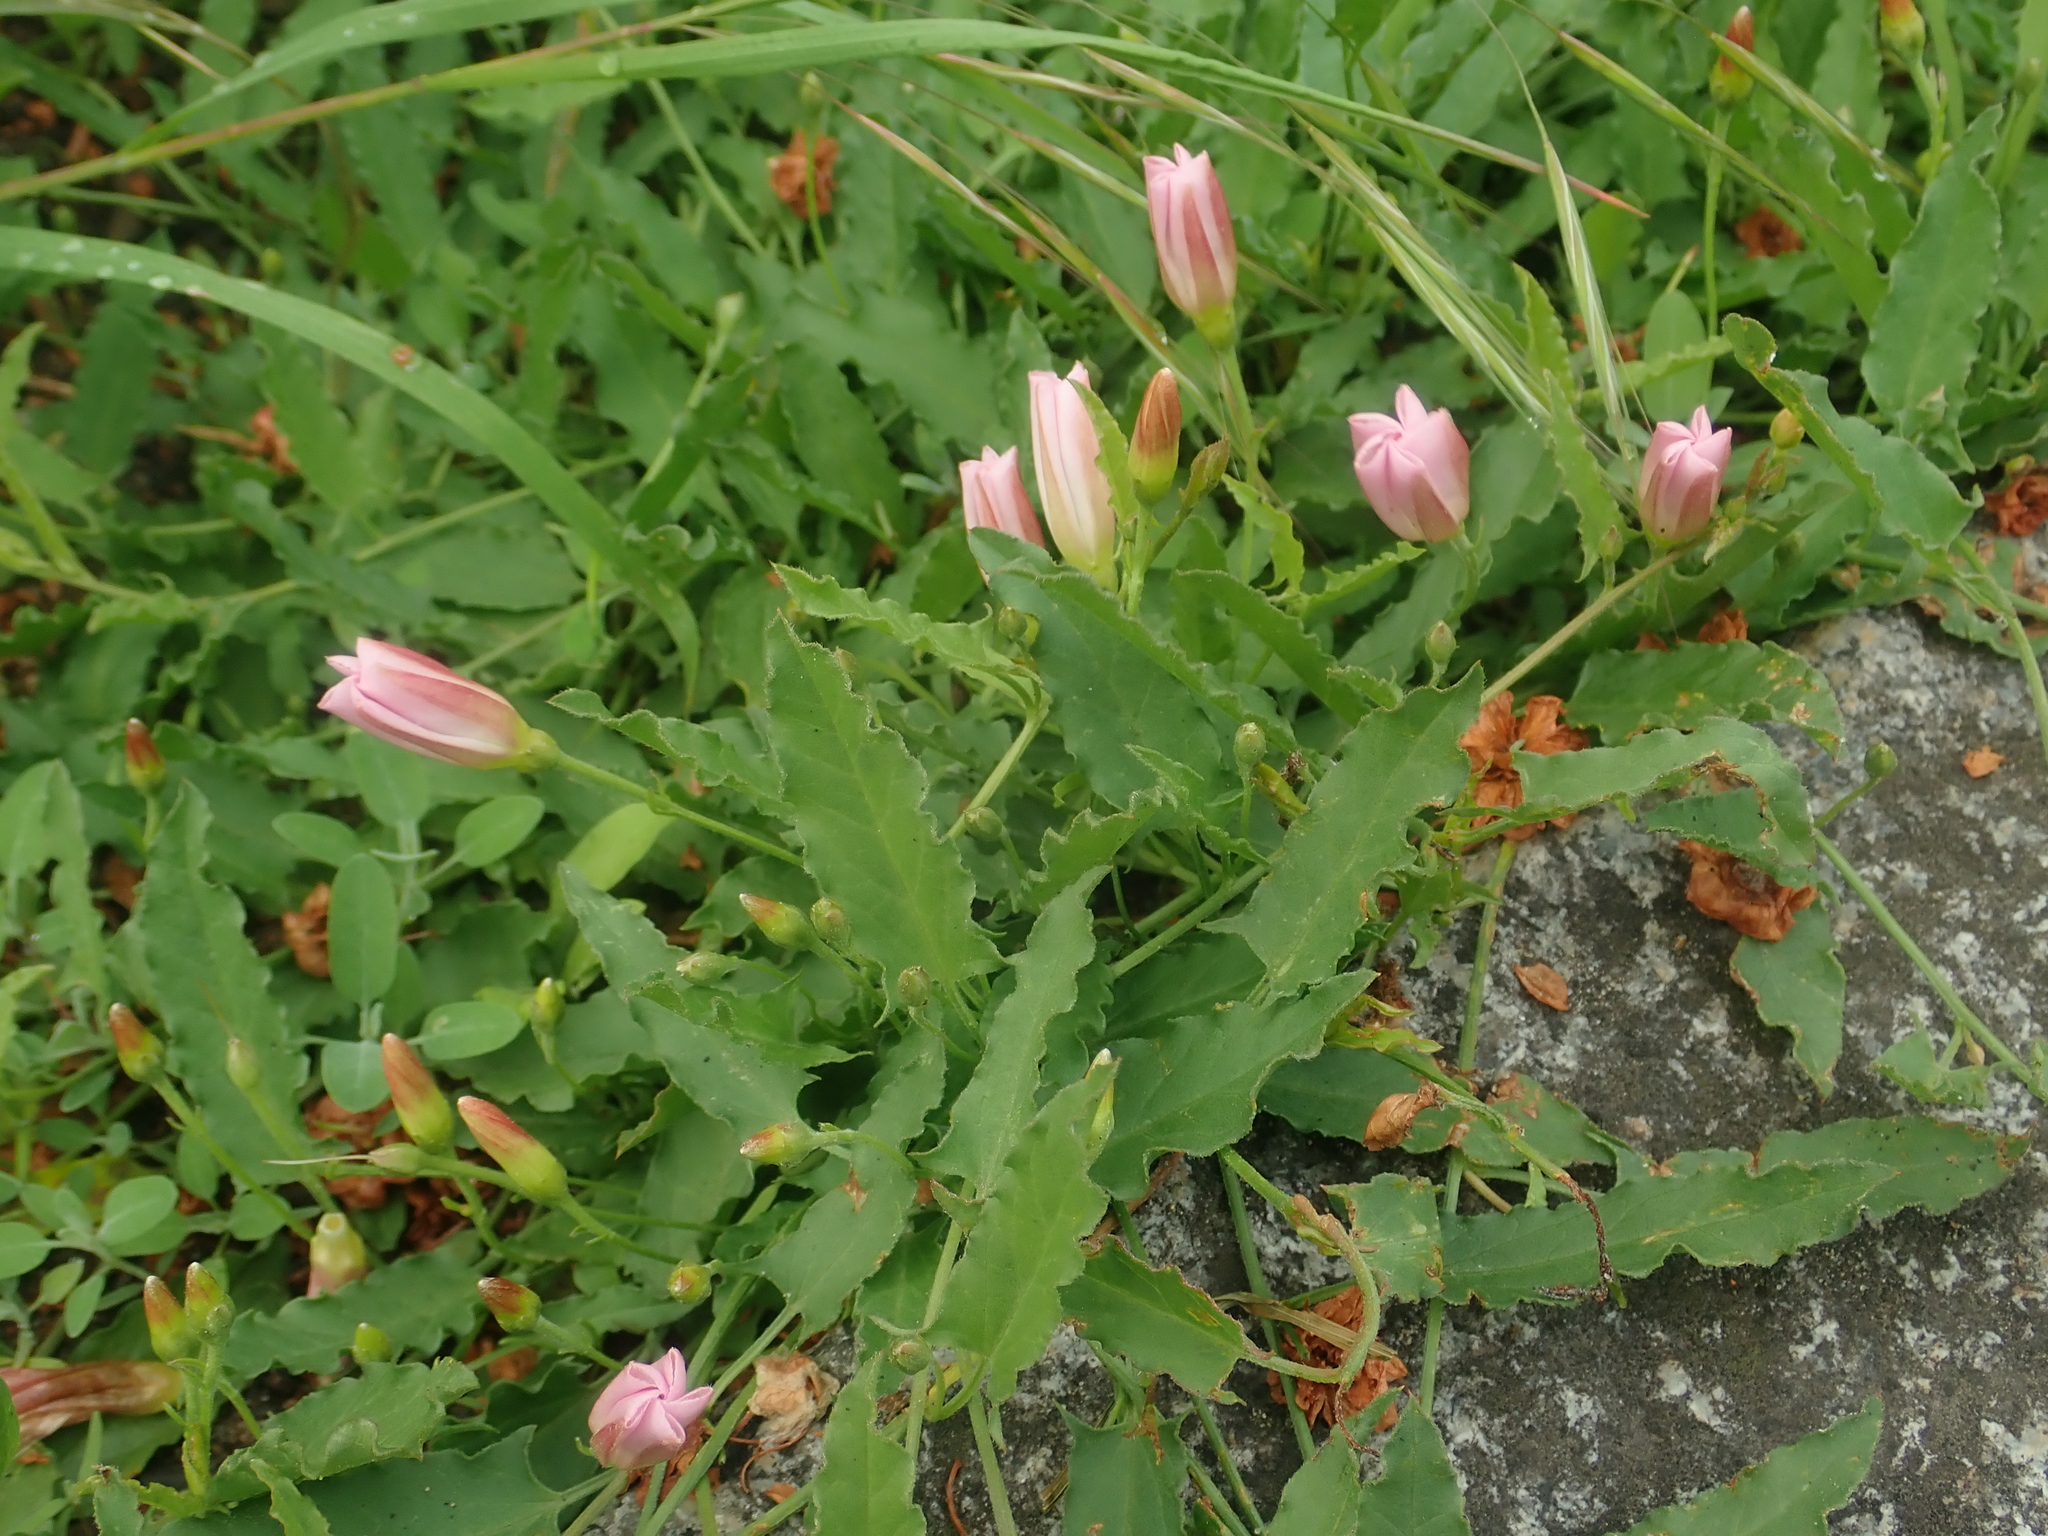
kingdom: Plantae
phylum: Tracheophyta
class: Magnoliopsida
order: Solanales
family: Convolvulaceae
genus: Convolvulus
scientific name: Convolvulus arvensis
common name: Field bindweed
